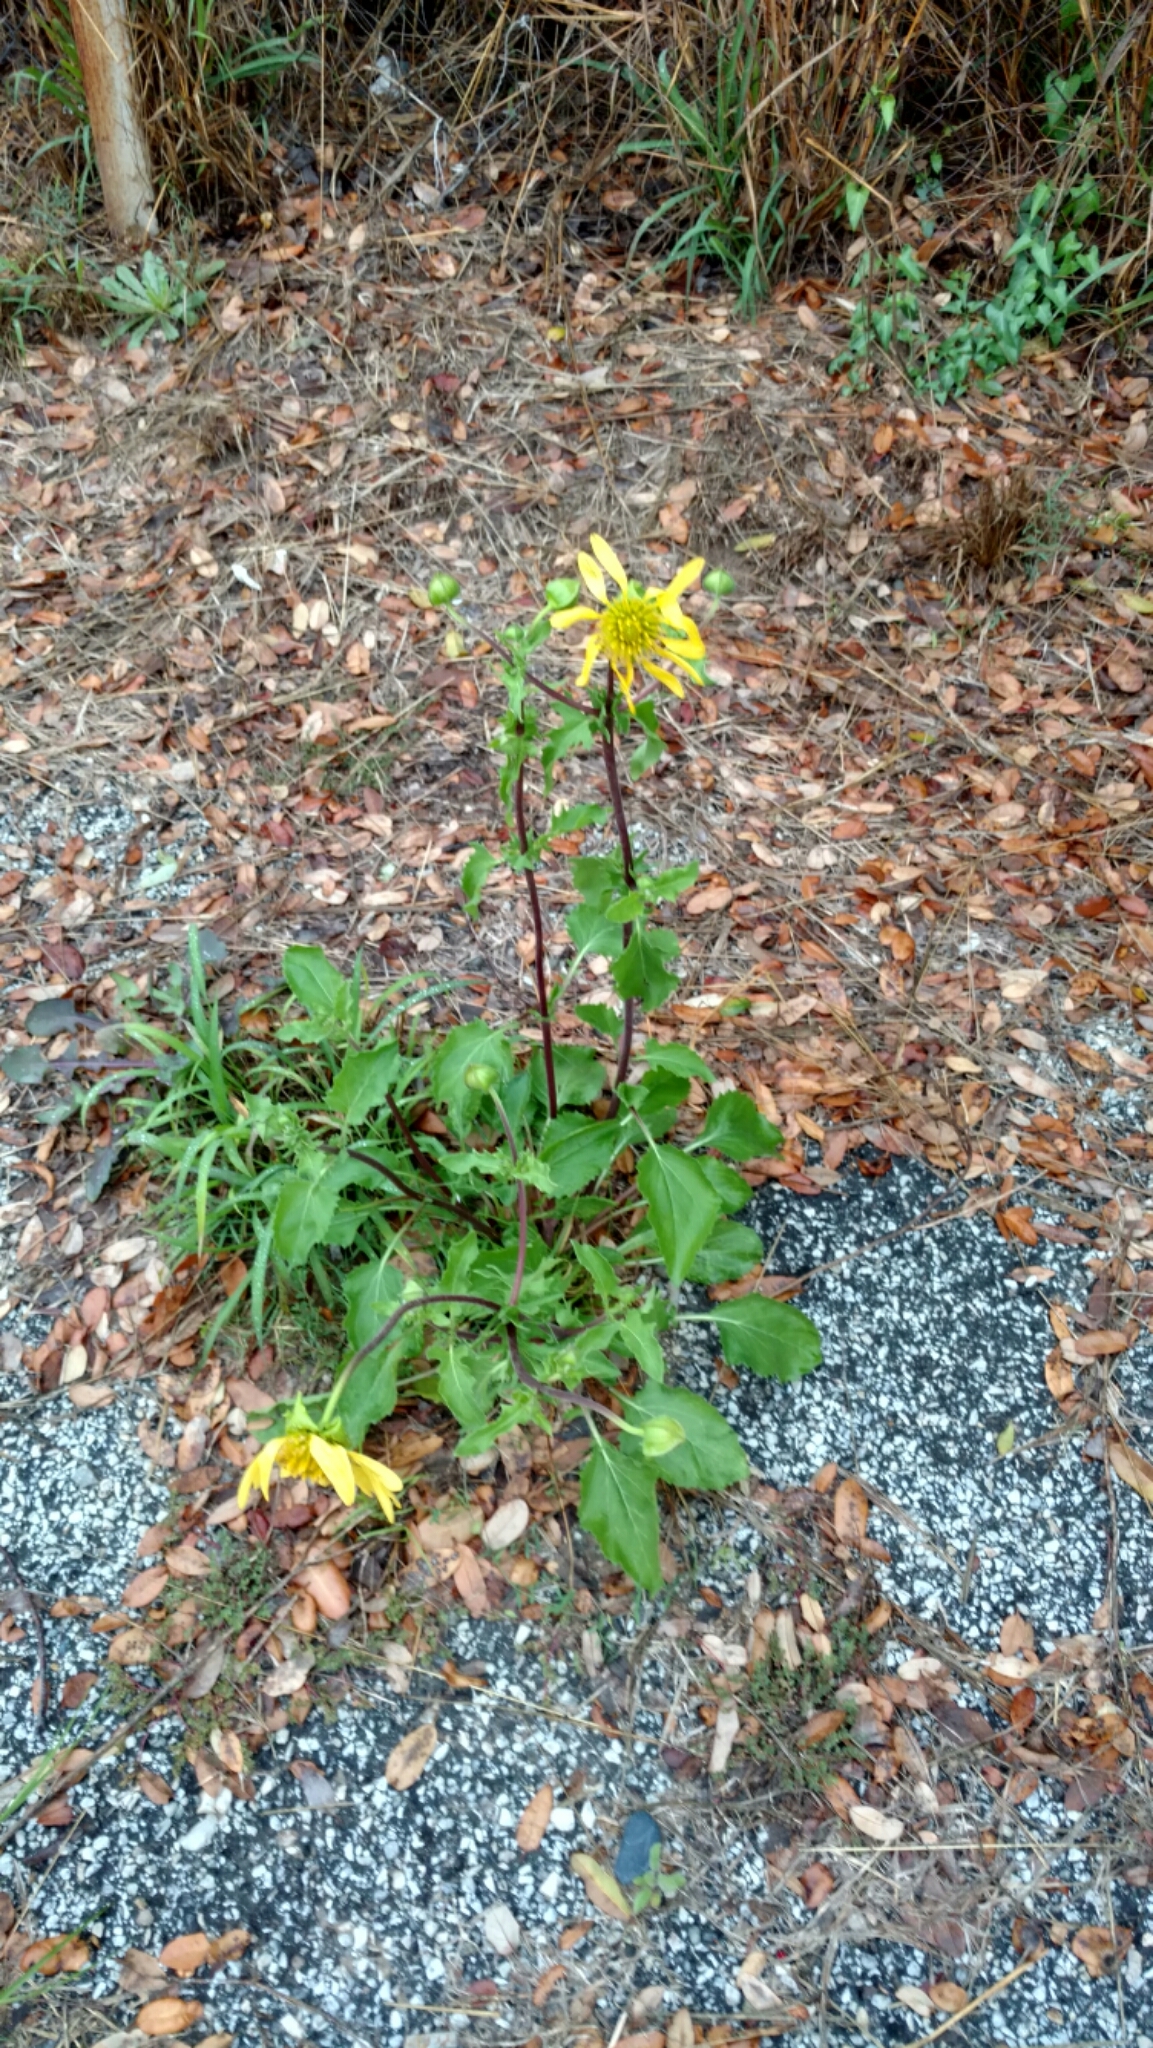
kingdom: Plantae
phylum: Tracheophyta
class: Magnoliopsida
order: Asterales
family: Asteraceae
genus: Tetragonotheca
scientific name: Tetragonotheca repanda
